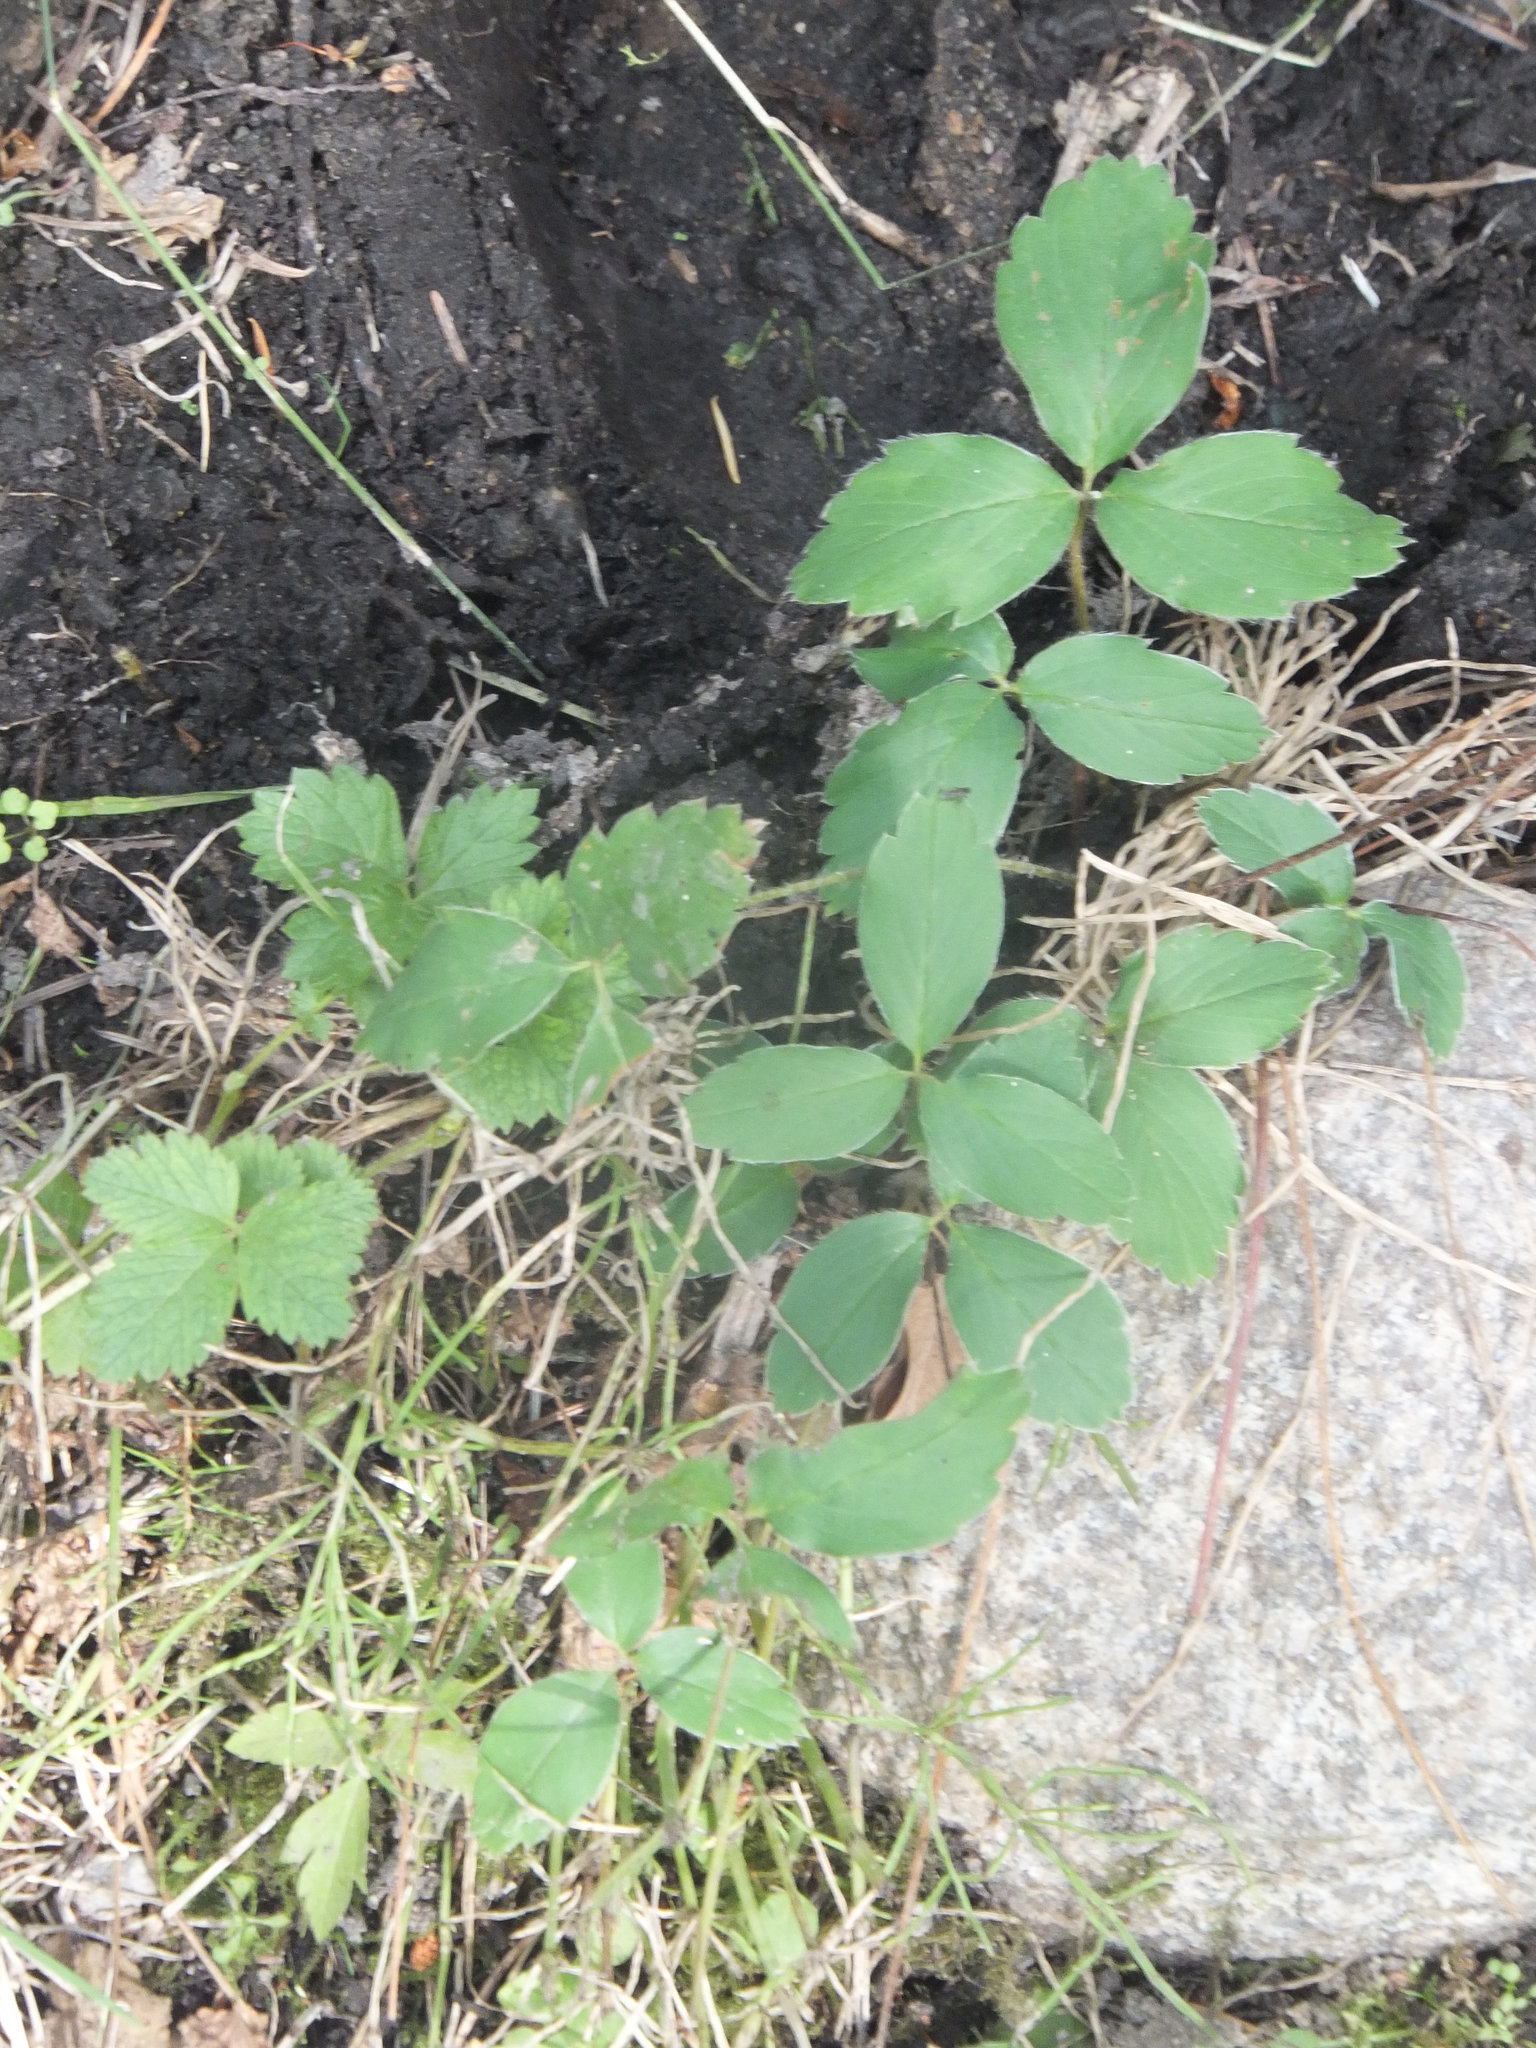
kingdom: Plantae
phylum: Tracheophyta
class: Magnoliopsida
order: Rosales
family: Rosaceae
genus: Fragaria
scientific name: Fragaria virginiana
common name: Thickleaved wild strawberry
